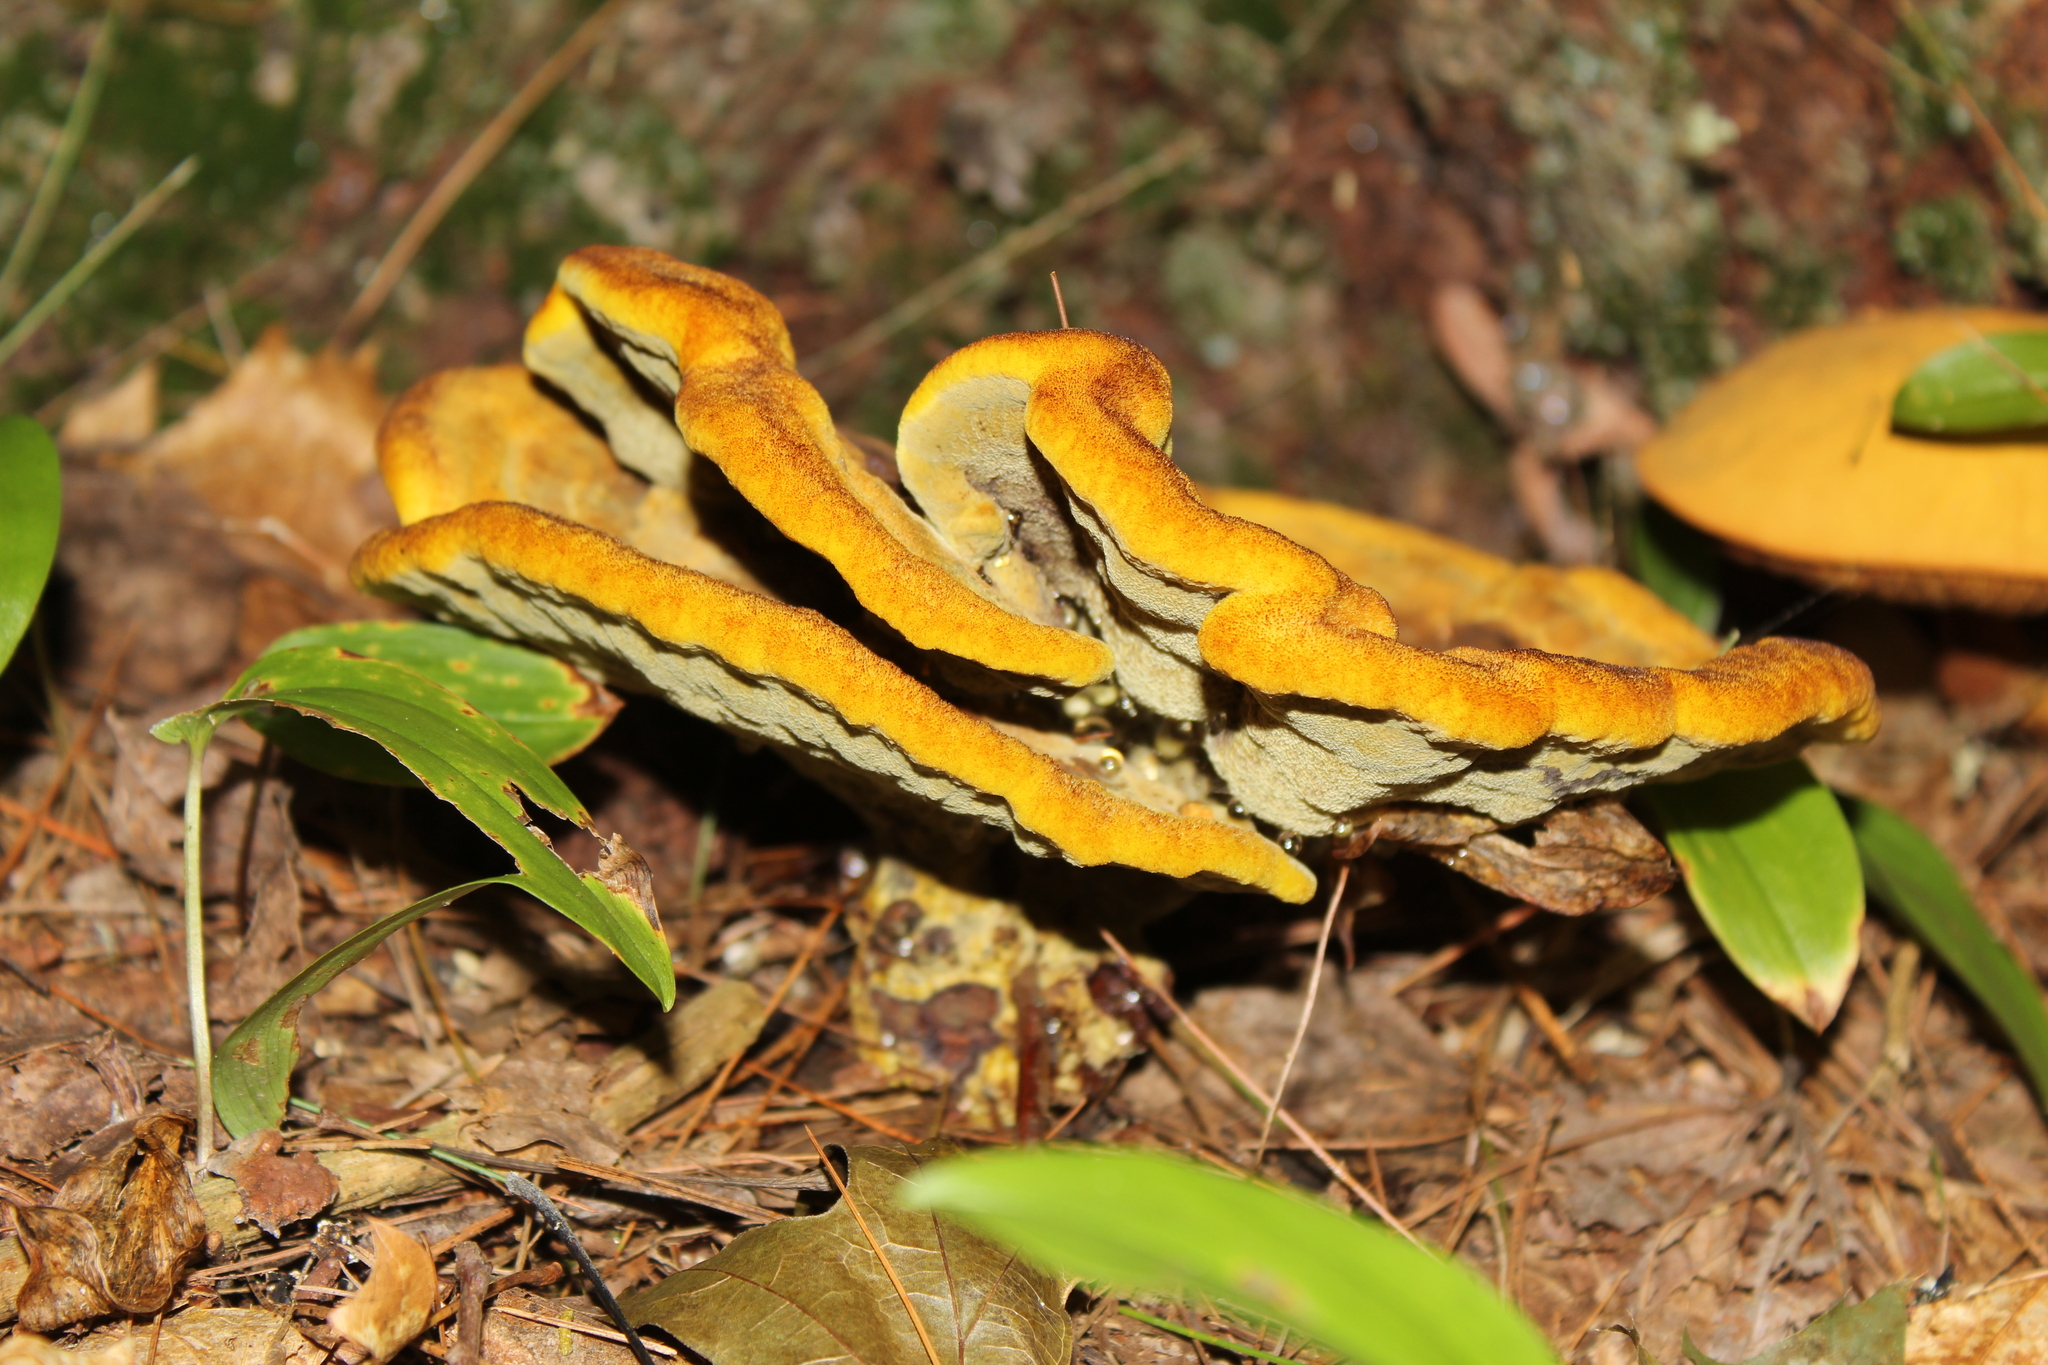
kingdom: Fungi
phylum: Basidiomycota
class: Agaricomycetes
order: Polyporales
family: Laetiporaceae
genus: Phaeolus
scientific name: Phaeolus schweinitzii
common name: Dyer's mazegill
